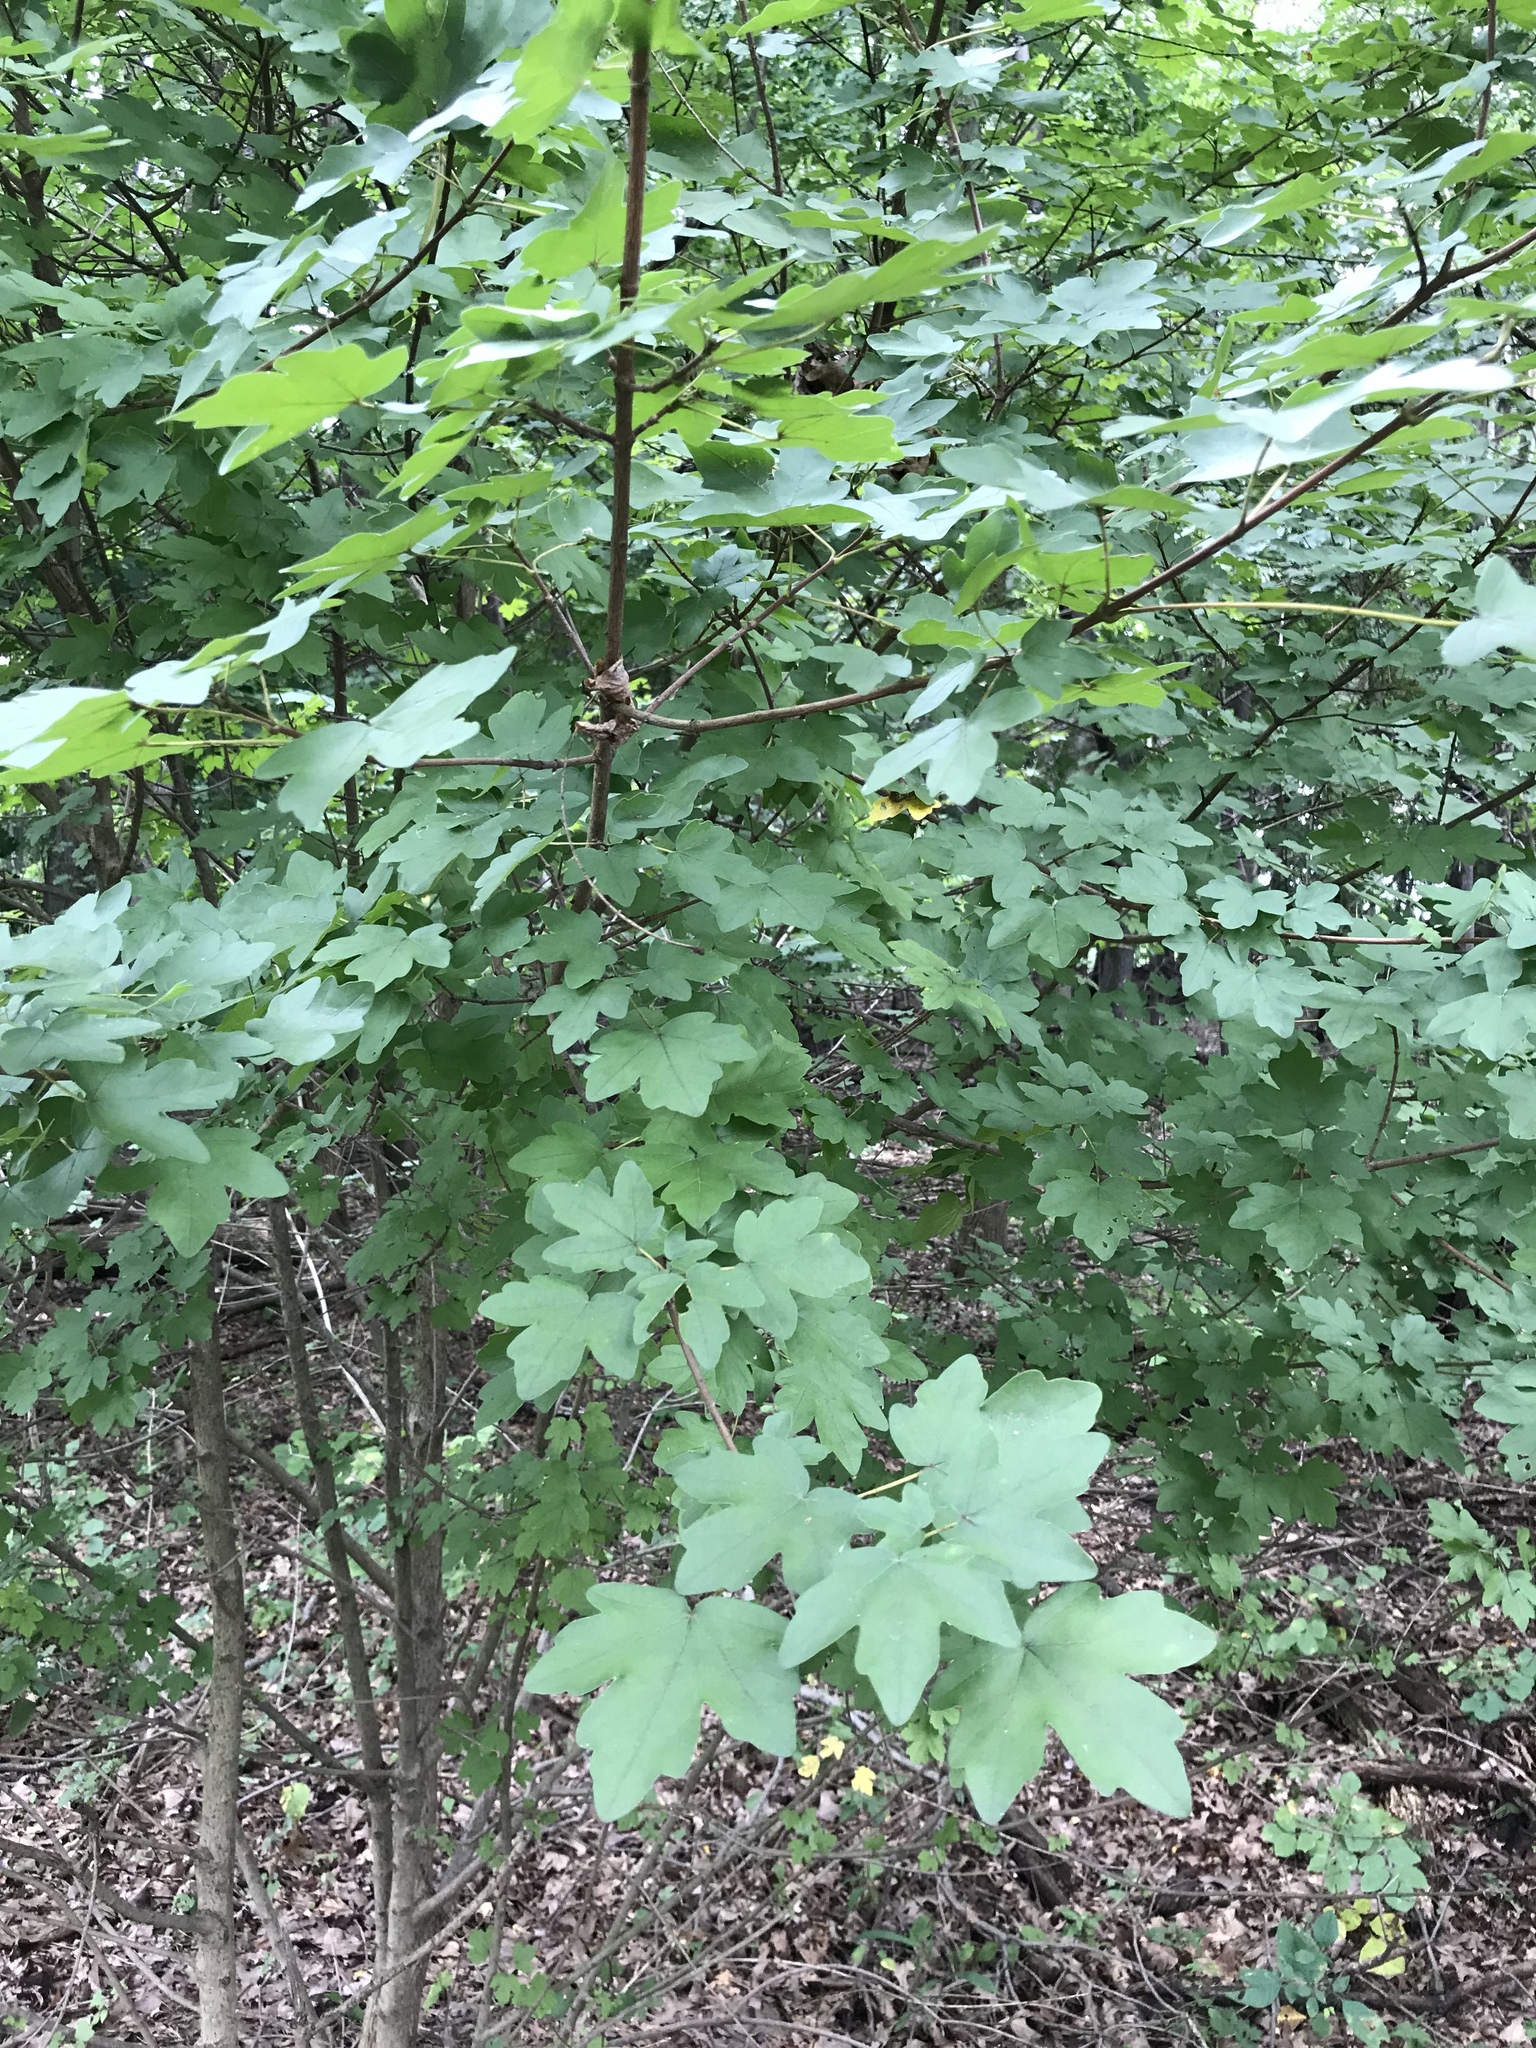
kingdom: Plantae
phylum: Tracheophyta
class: Magnoliopsida
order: Sapindales
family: Sapindaceae
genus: Acer
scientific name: Acer campestre
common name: Field maple
